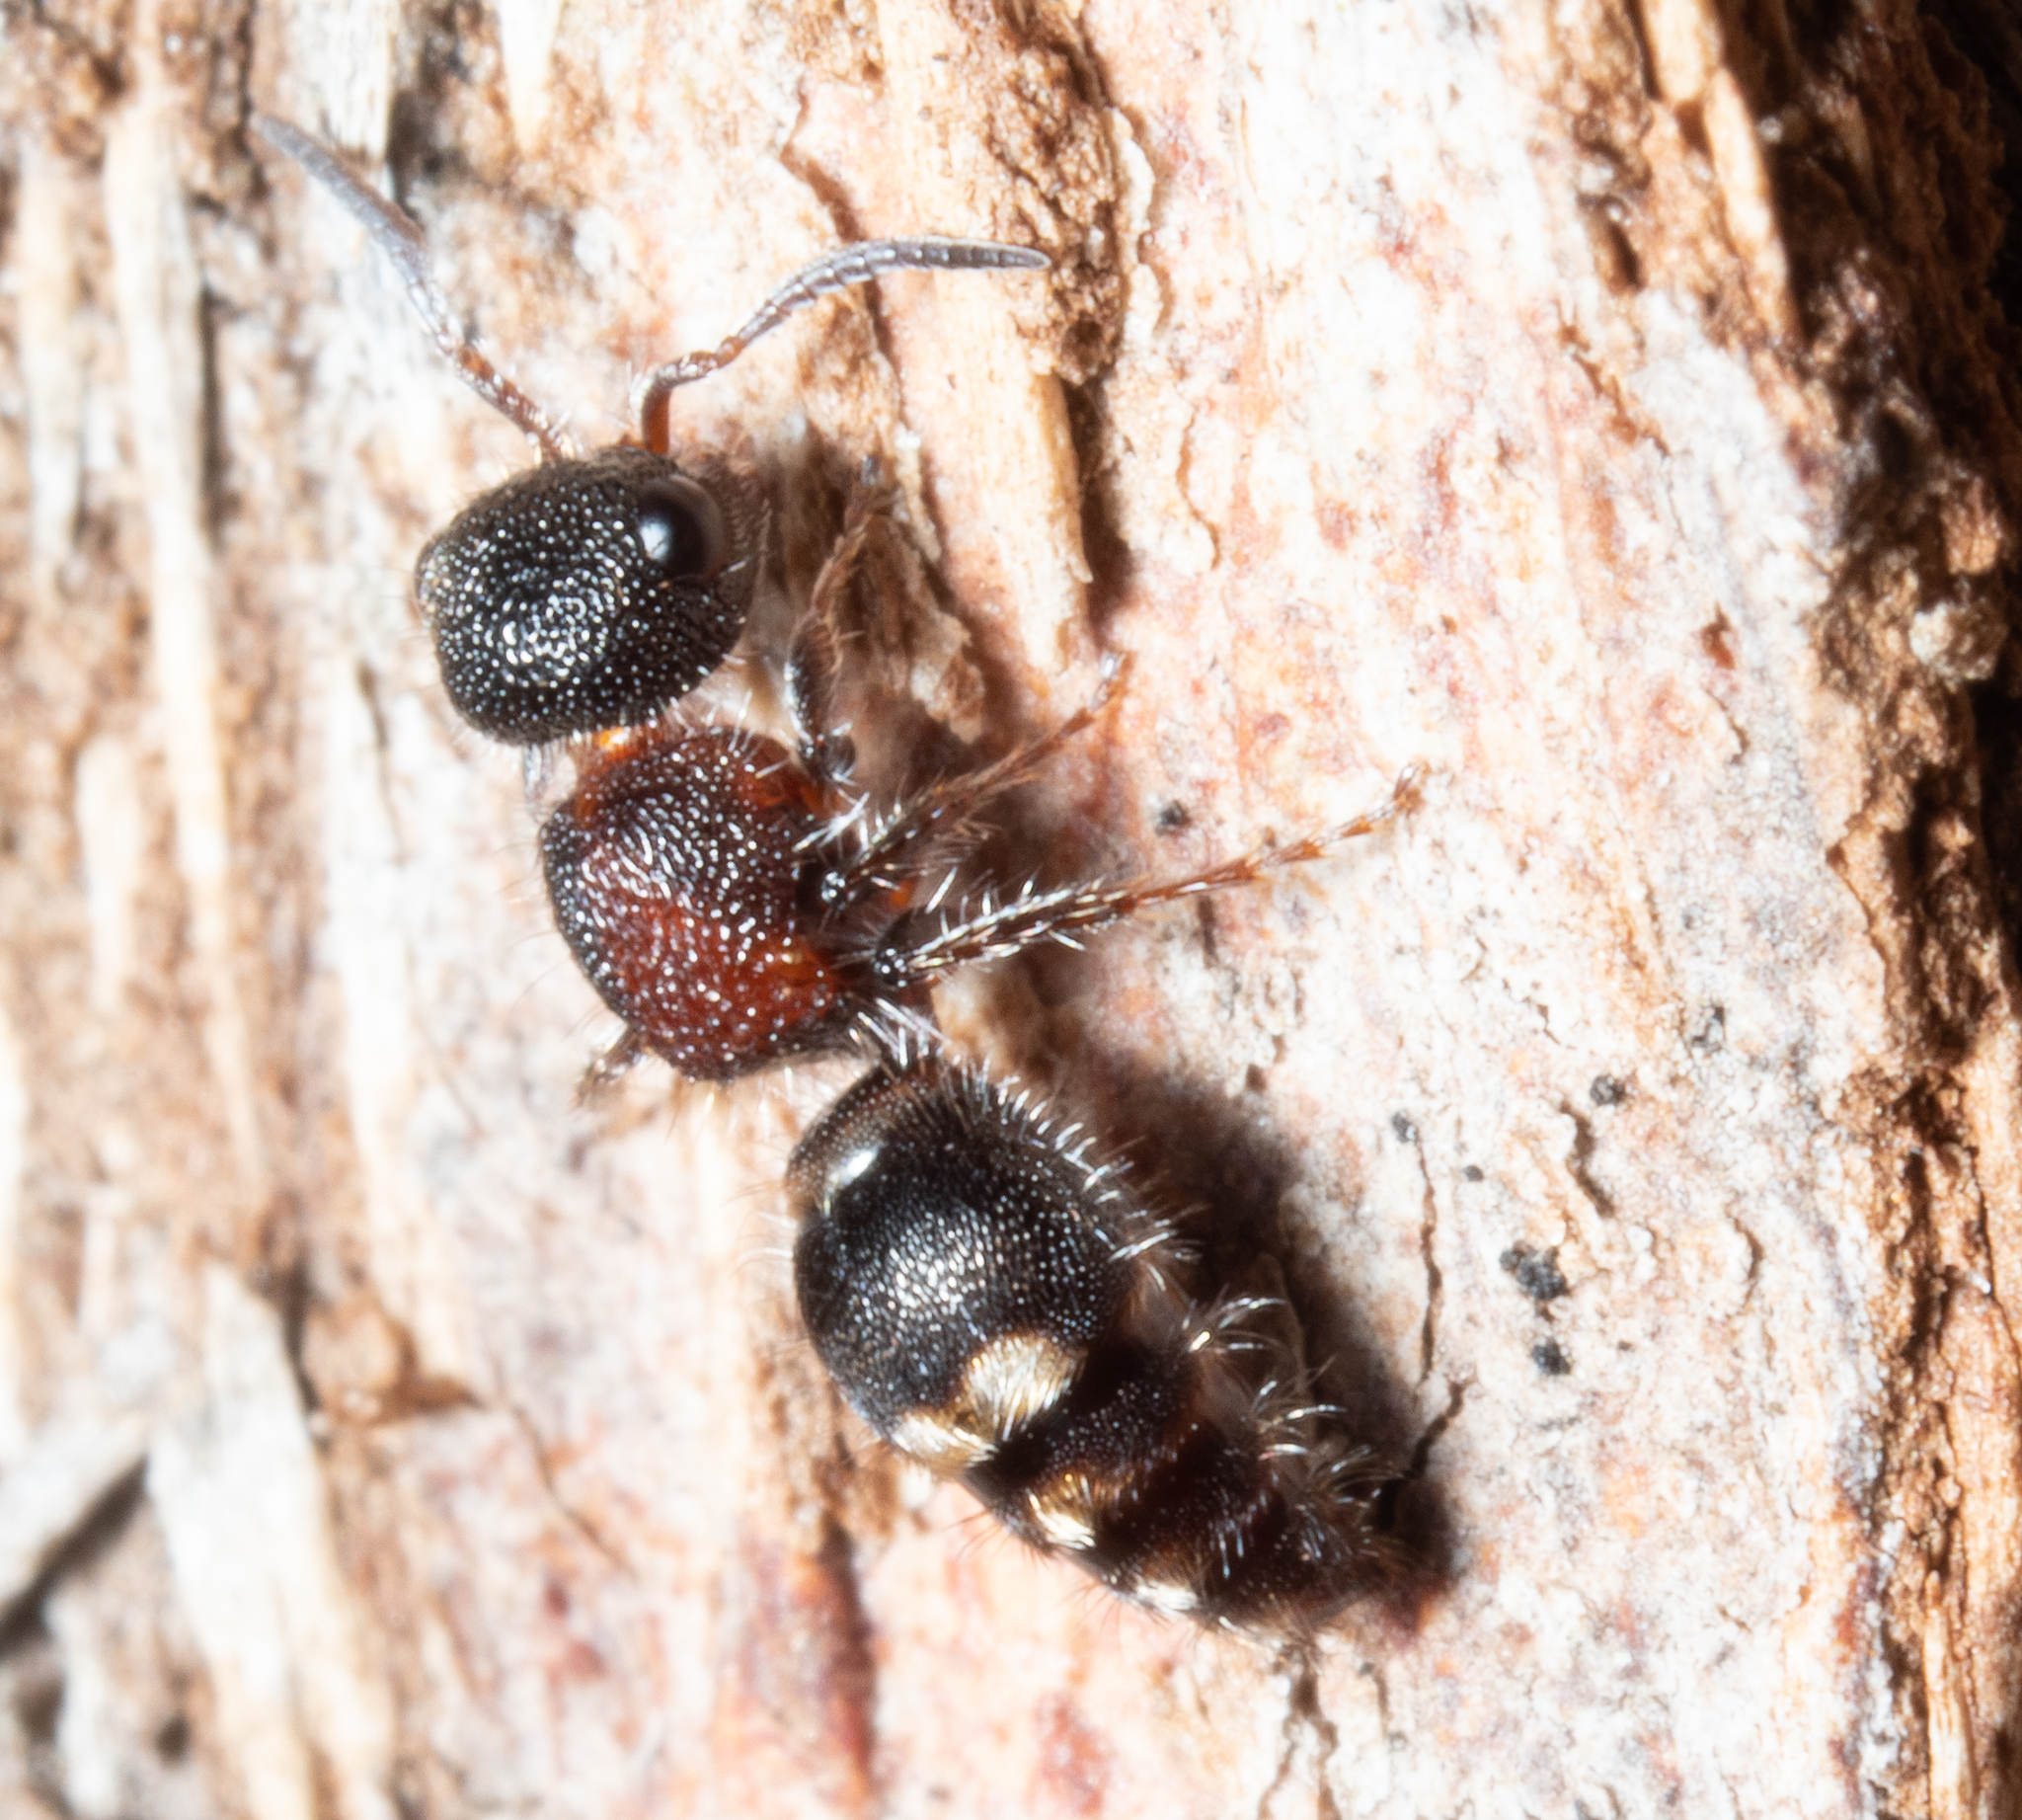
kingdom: Animalia
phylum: Arthropoda
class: Insecta
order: Hymenoptera
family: Mutillidae
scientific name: Mutillidae
